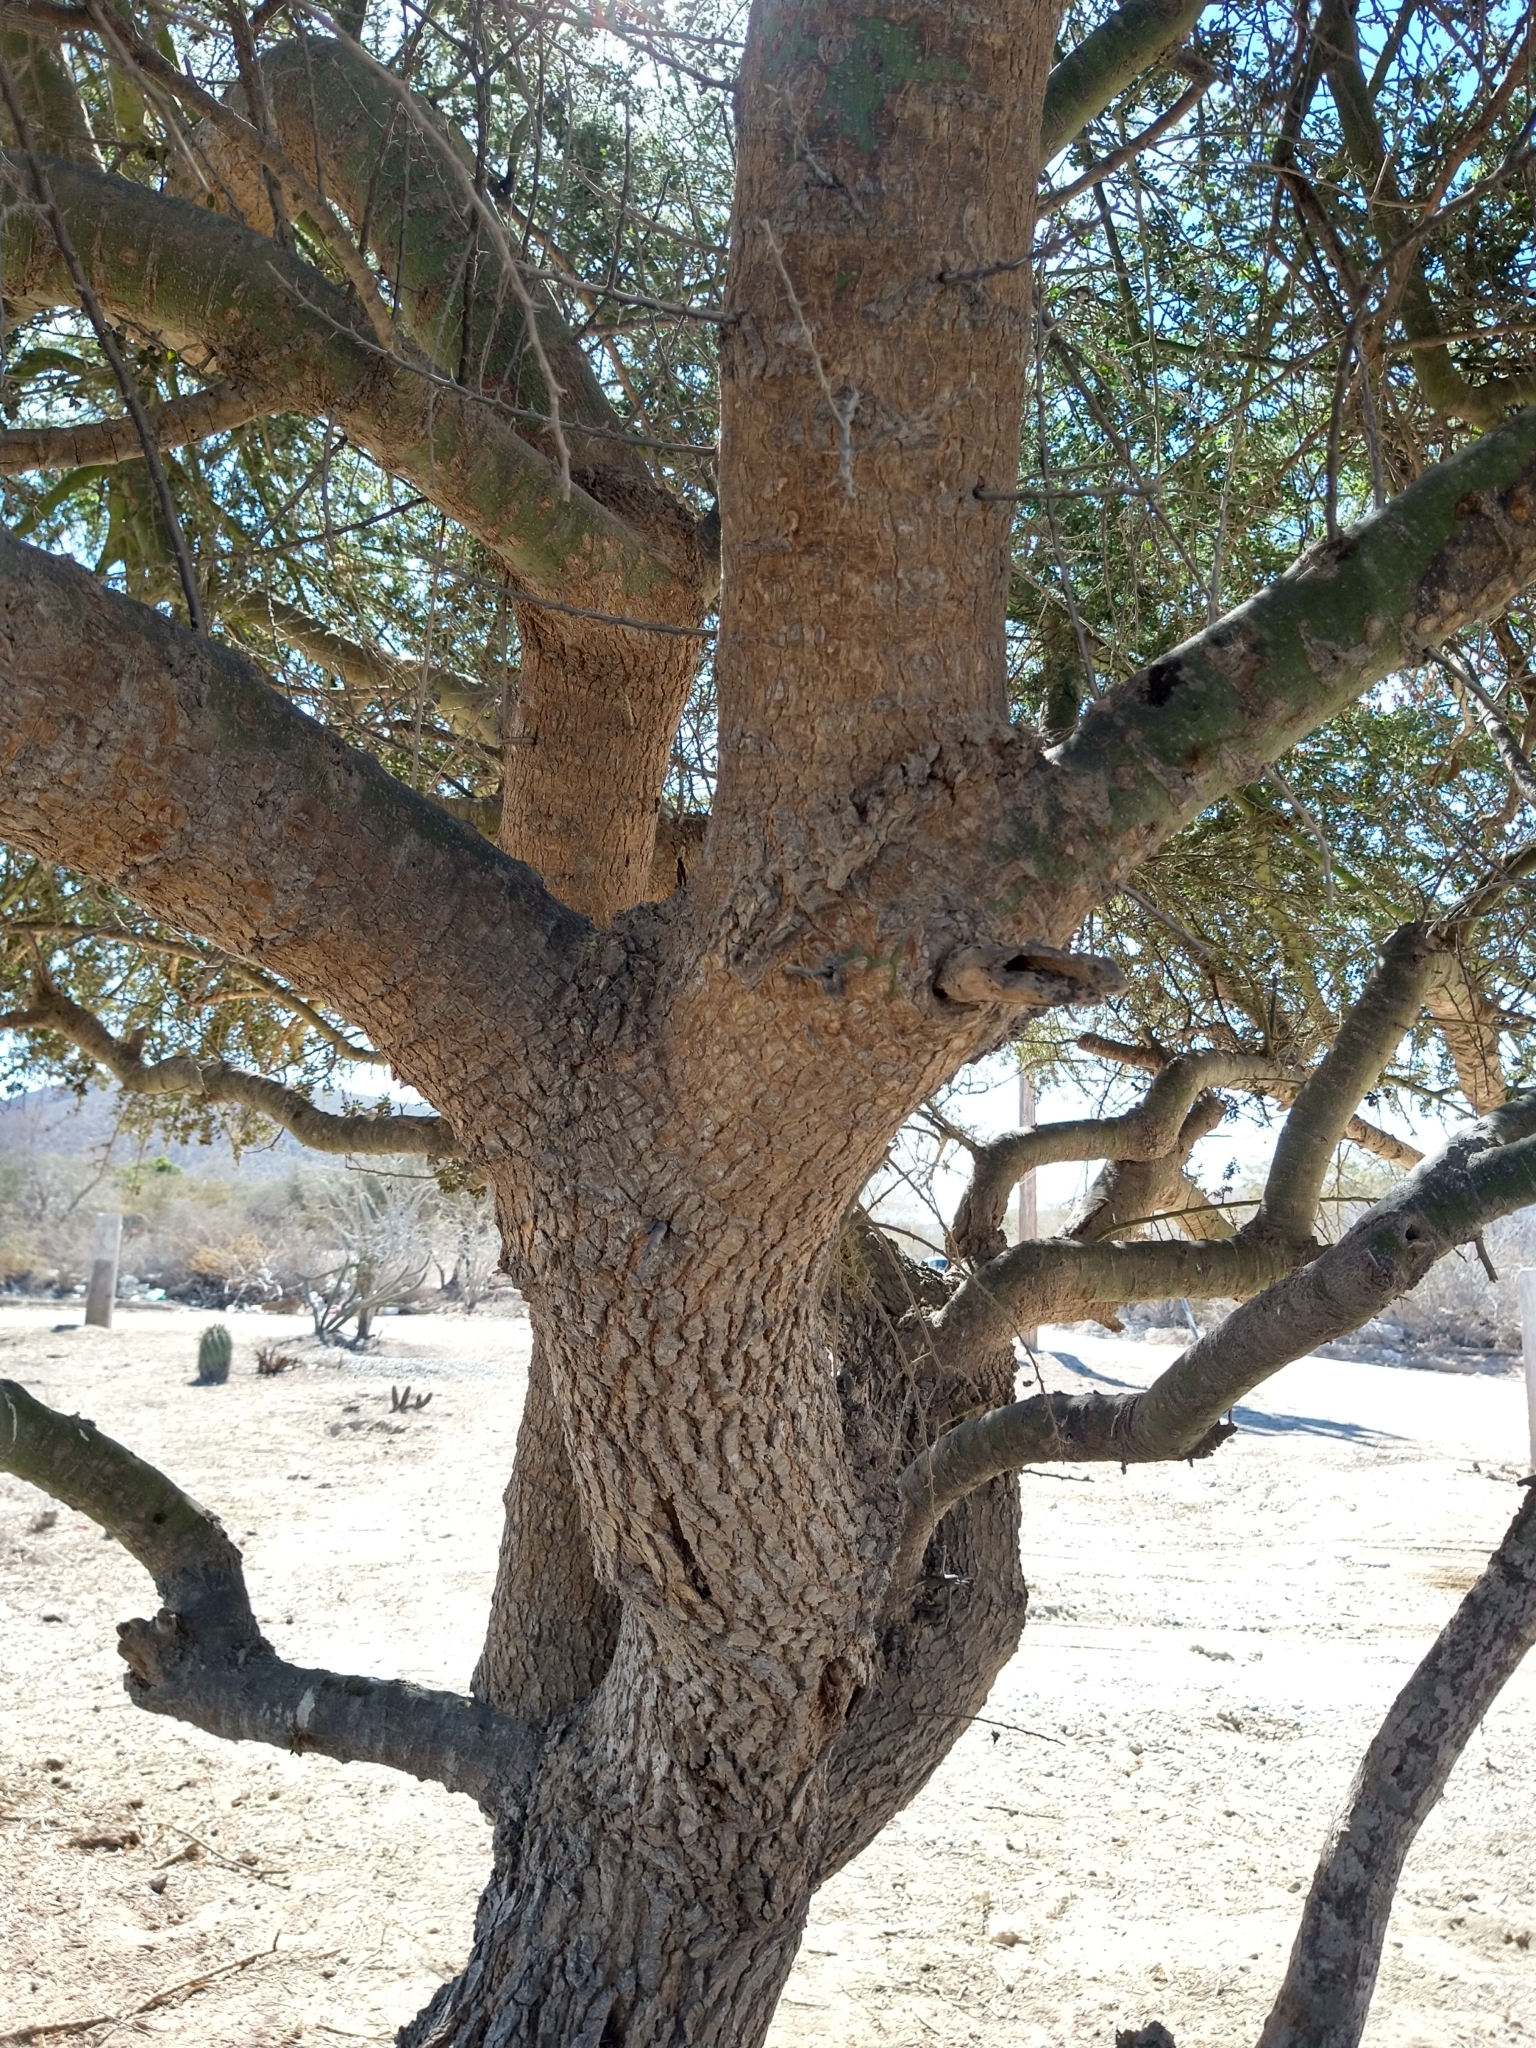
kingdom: Plantae
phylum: Tracheophyta
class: Magnoliopsida
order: Fabales
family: Fabaceae
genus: Parkinsonia
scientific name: Parkinsonia florida
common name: Blue paloverde
